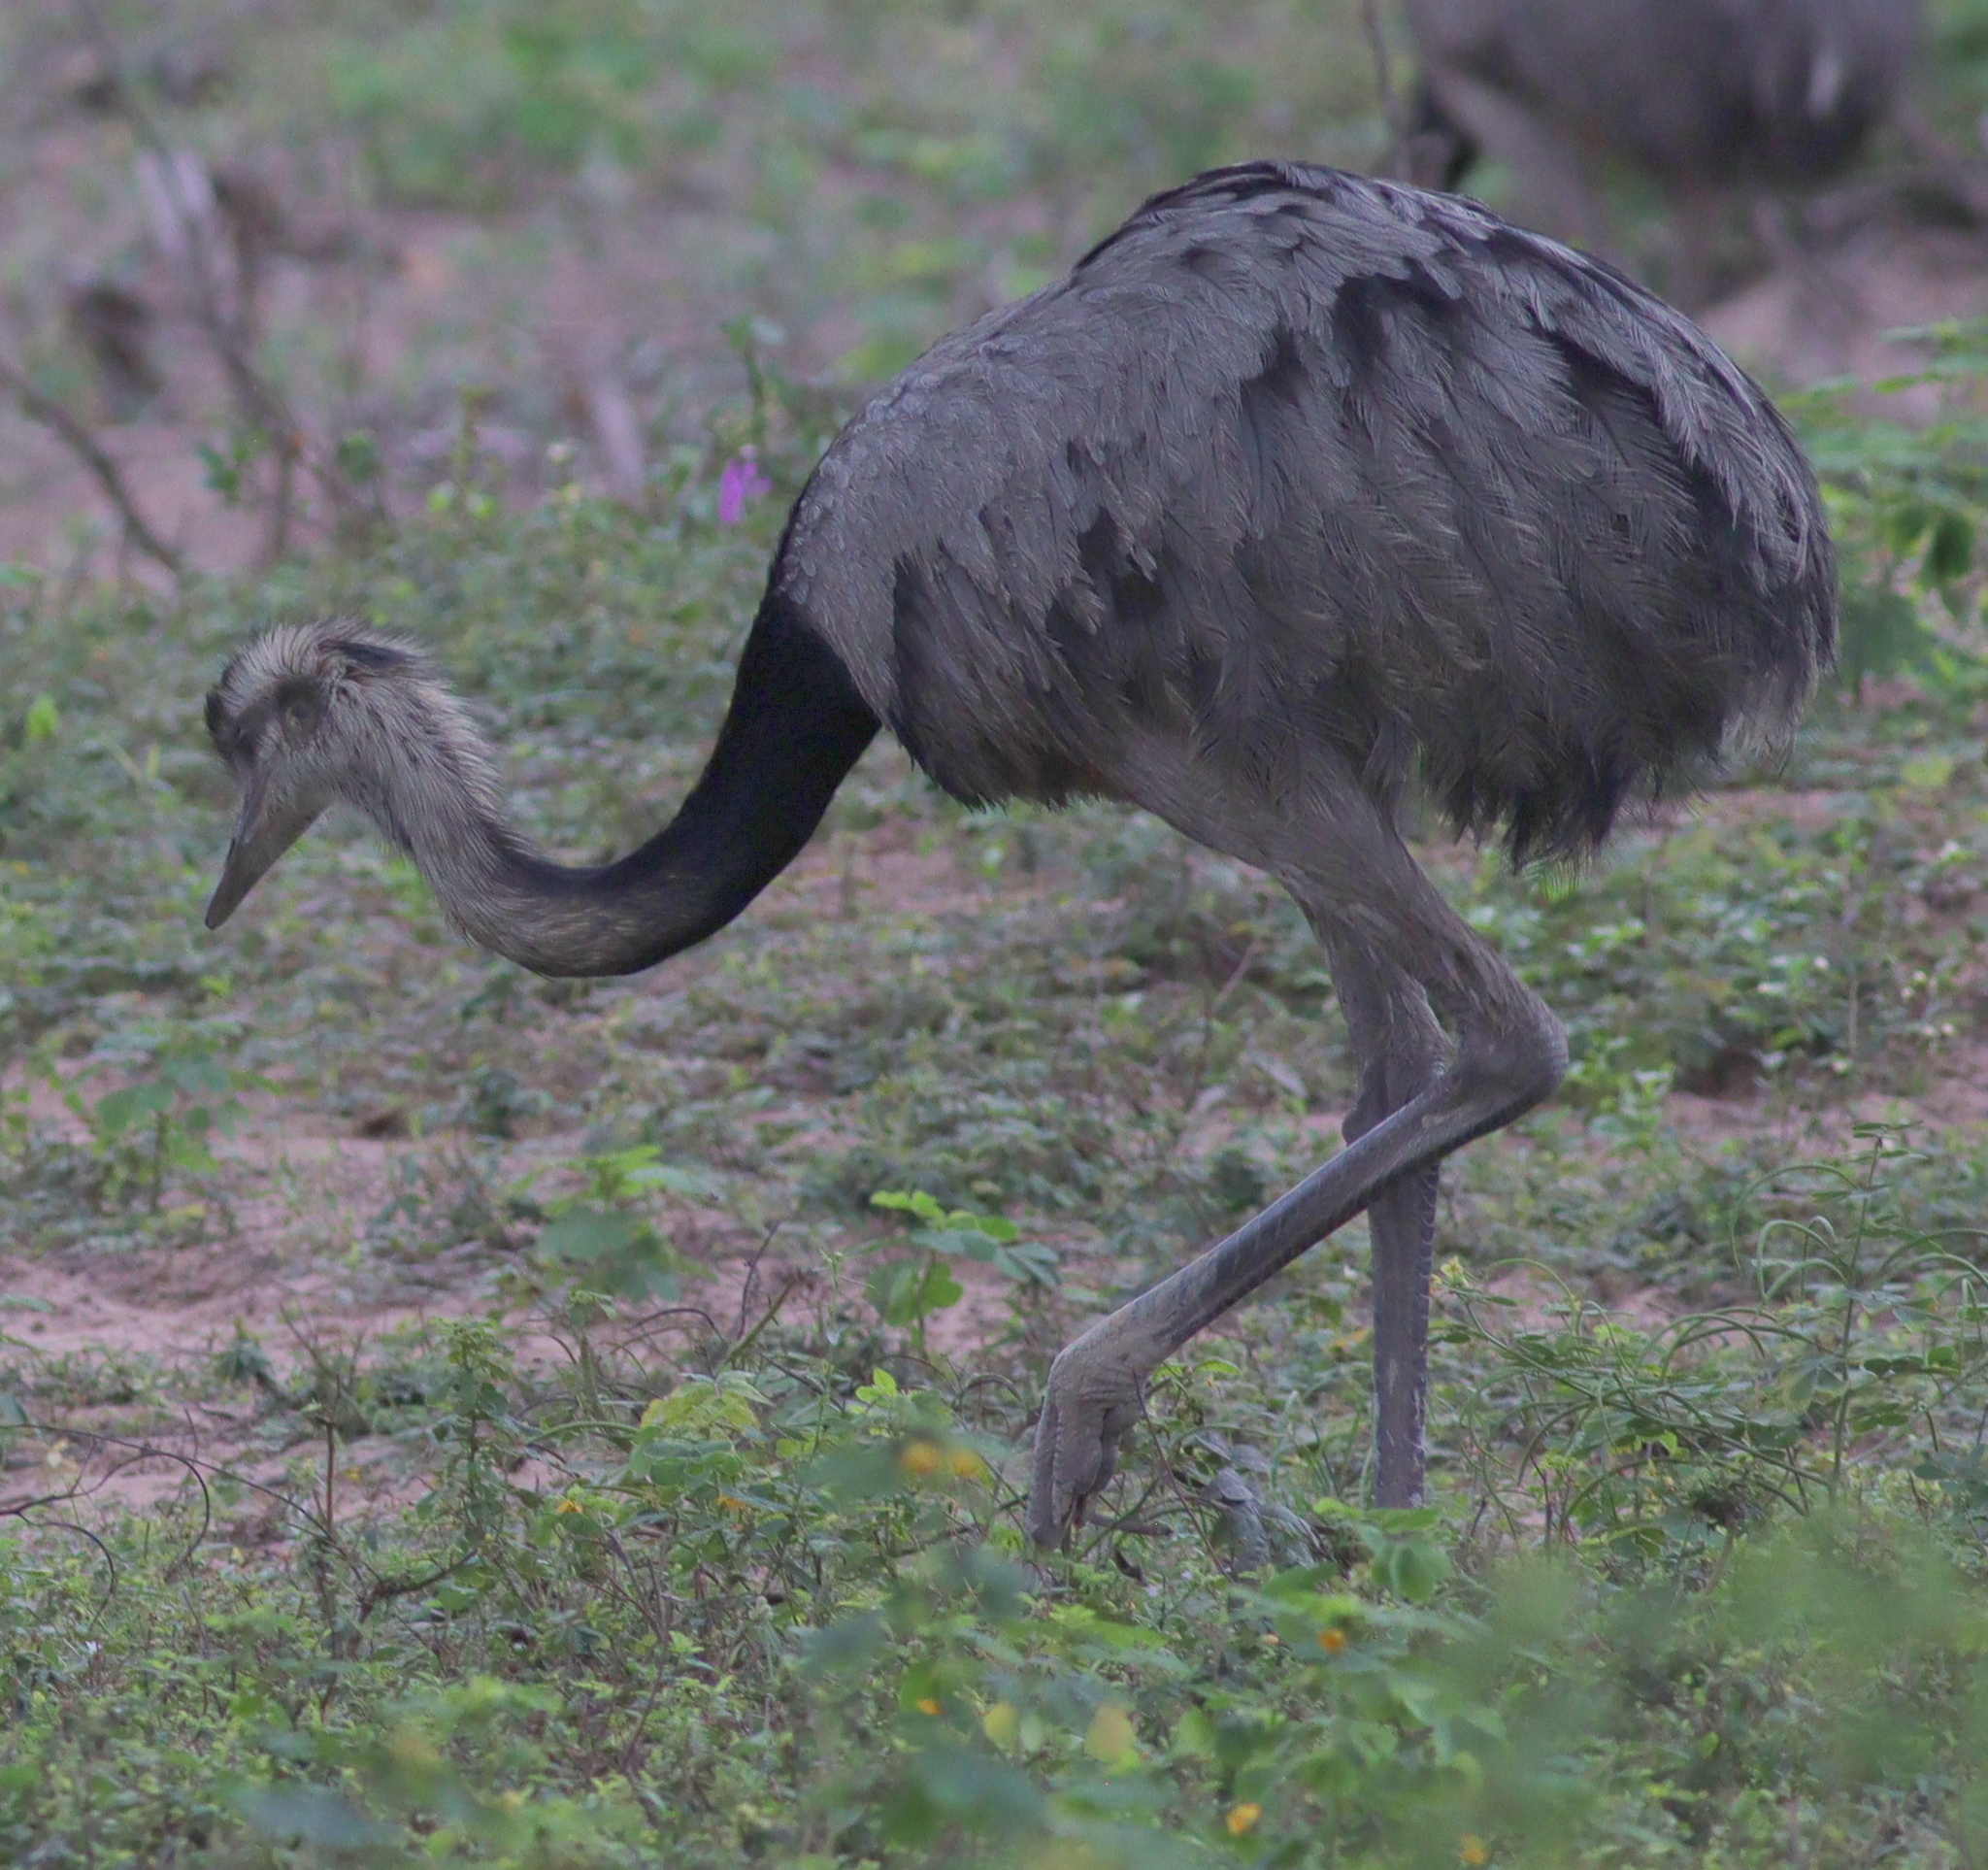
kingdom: Animalia
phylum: Chordata
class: Aves
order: Rheiformes
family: Rheidae
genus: Rhea
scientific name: Rhea americana
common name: Greater rhea
